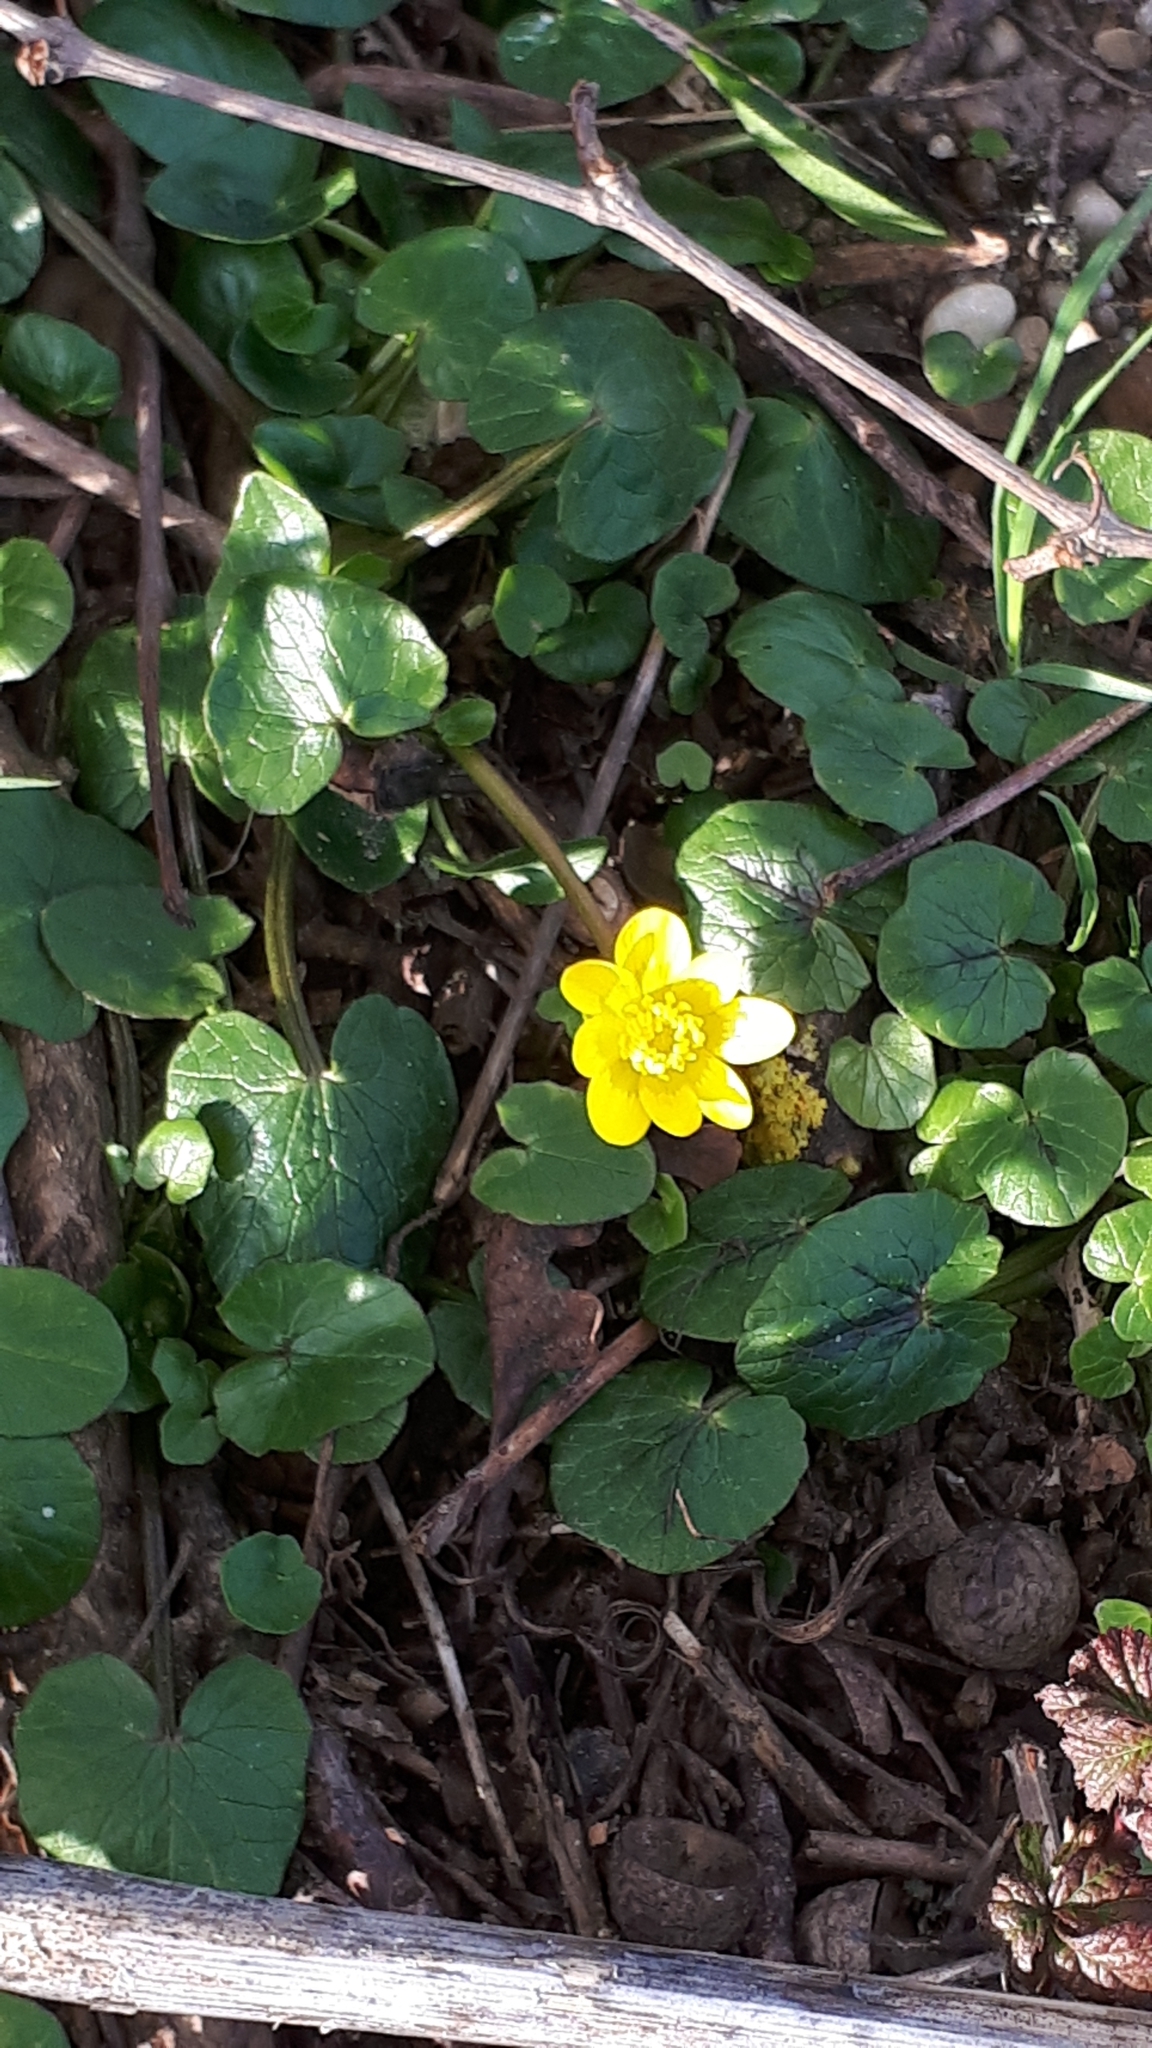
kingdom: Plantae
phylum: Tracheophyta
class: Magnoliopsida
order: Ranunculales
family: Ranunculaceae
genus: Ficaria
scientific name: Ficaria verna
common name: Lesser celandine
